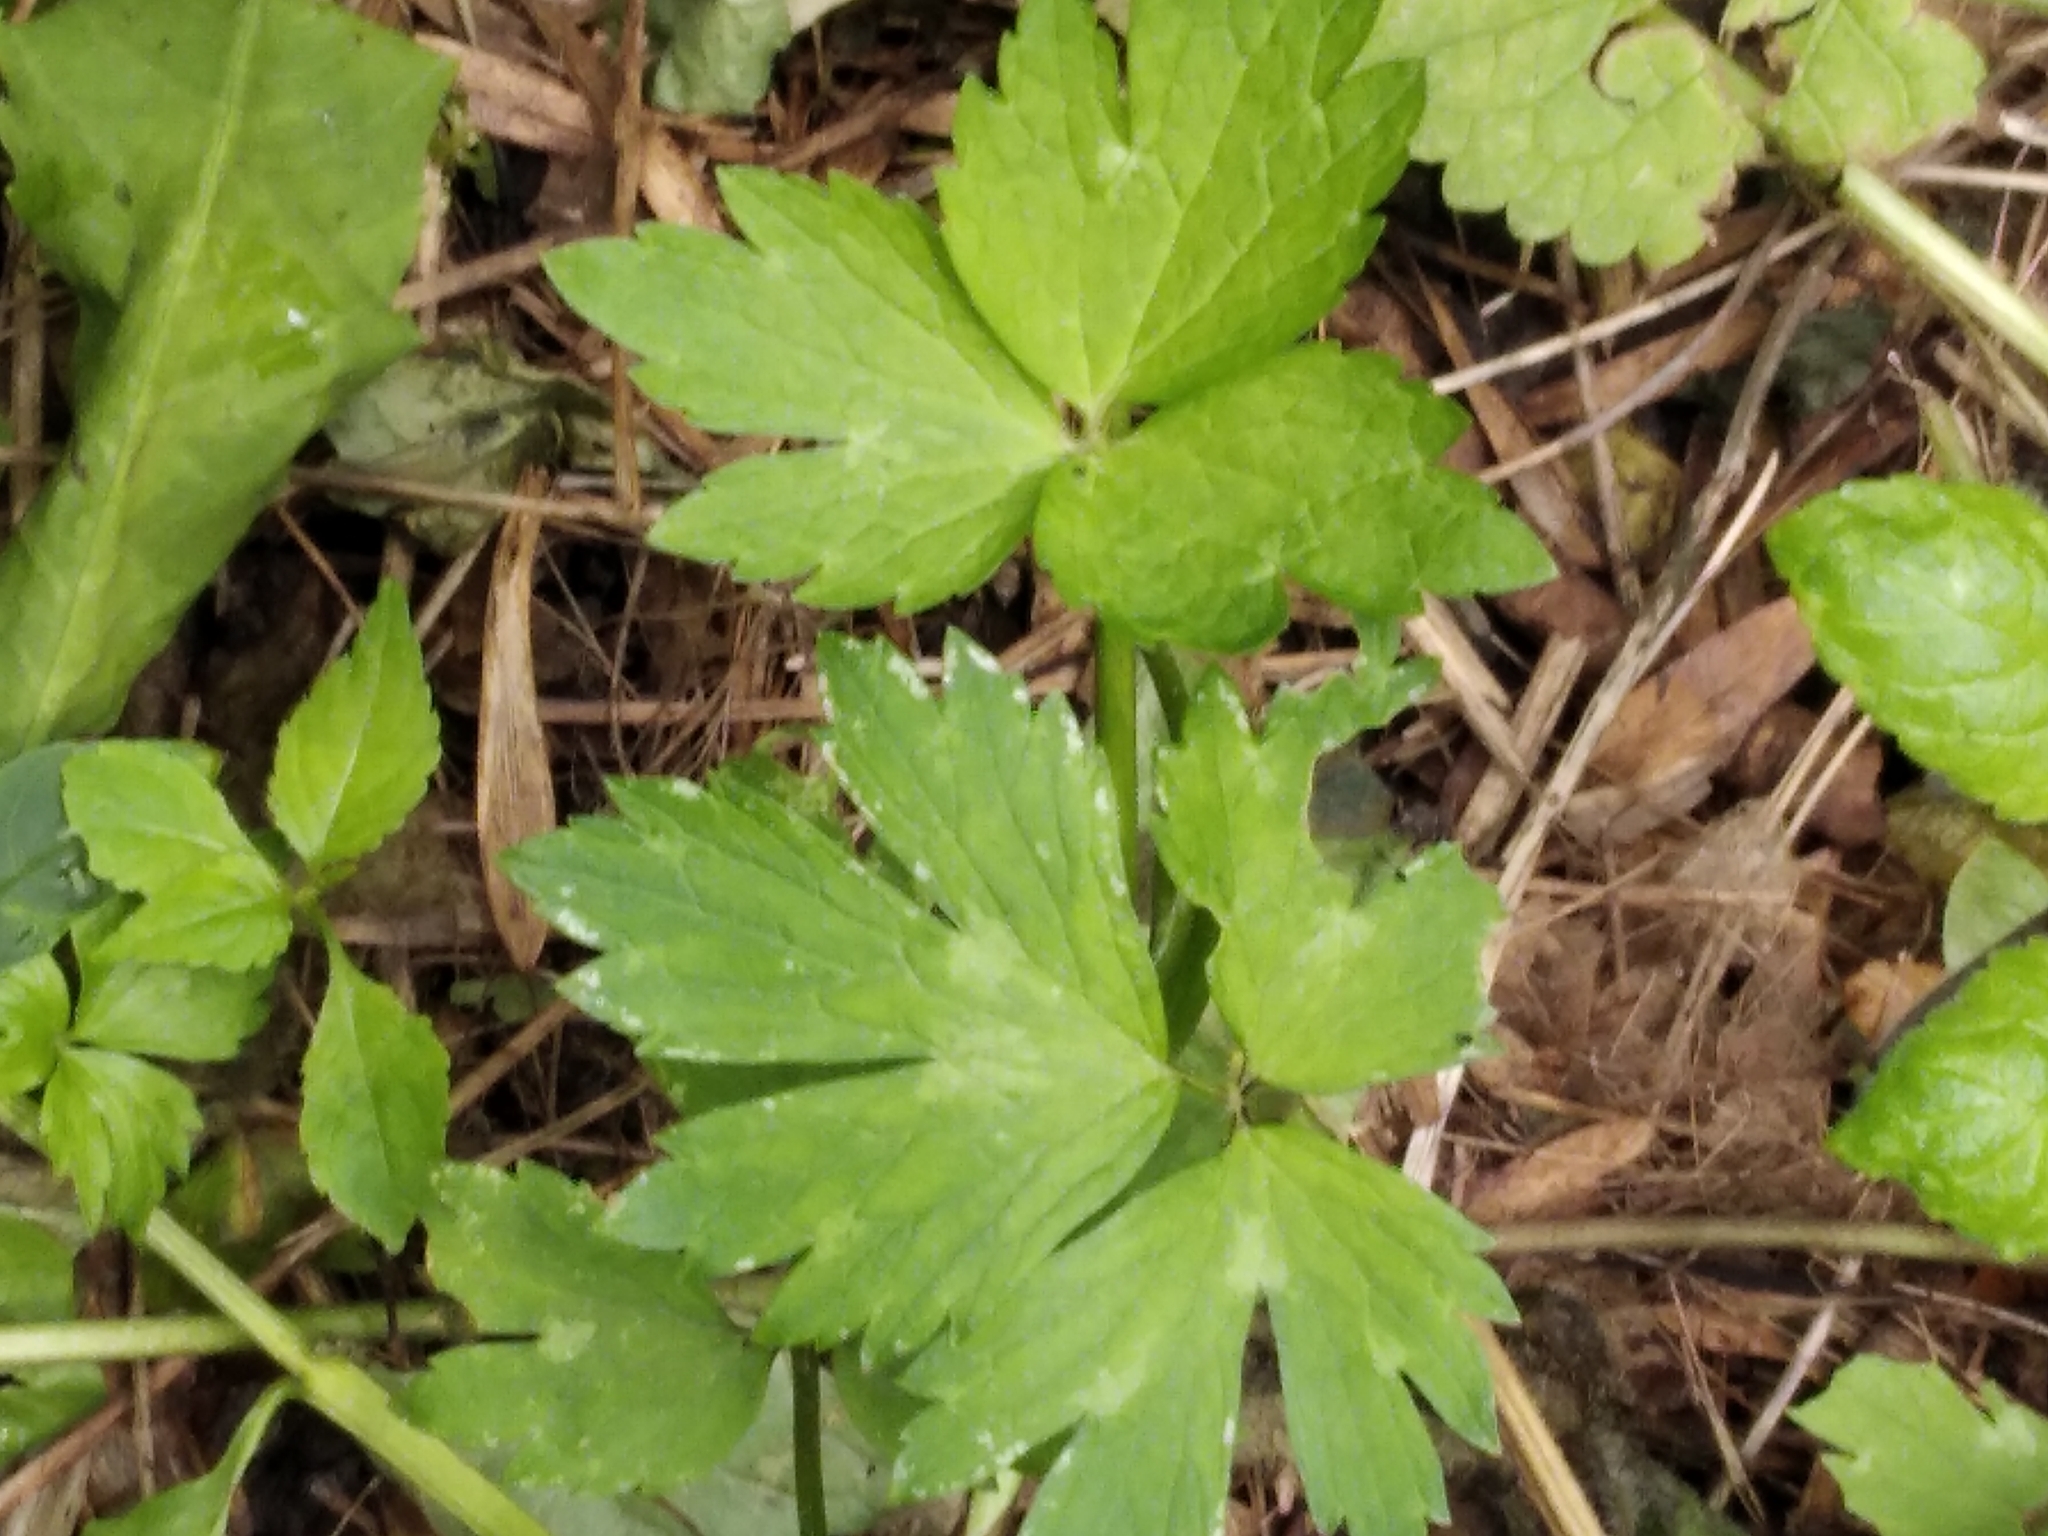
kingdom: Plantae
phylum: Tracheophyta
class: Magnoliopsida
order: Ranunculales
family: Ranunculaceae
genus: Ranunculus
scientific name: Ranunculus repens
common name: Creeping buttercup
